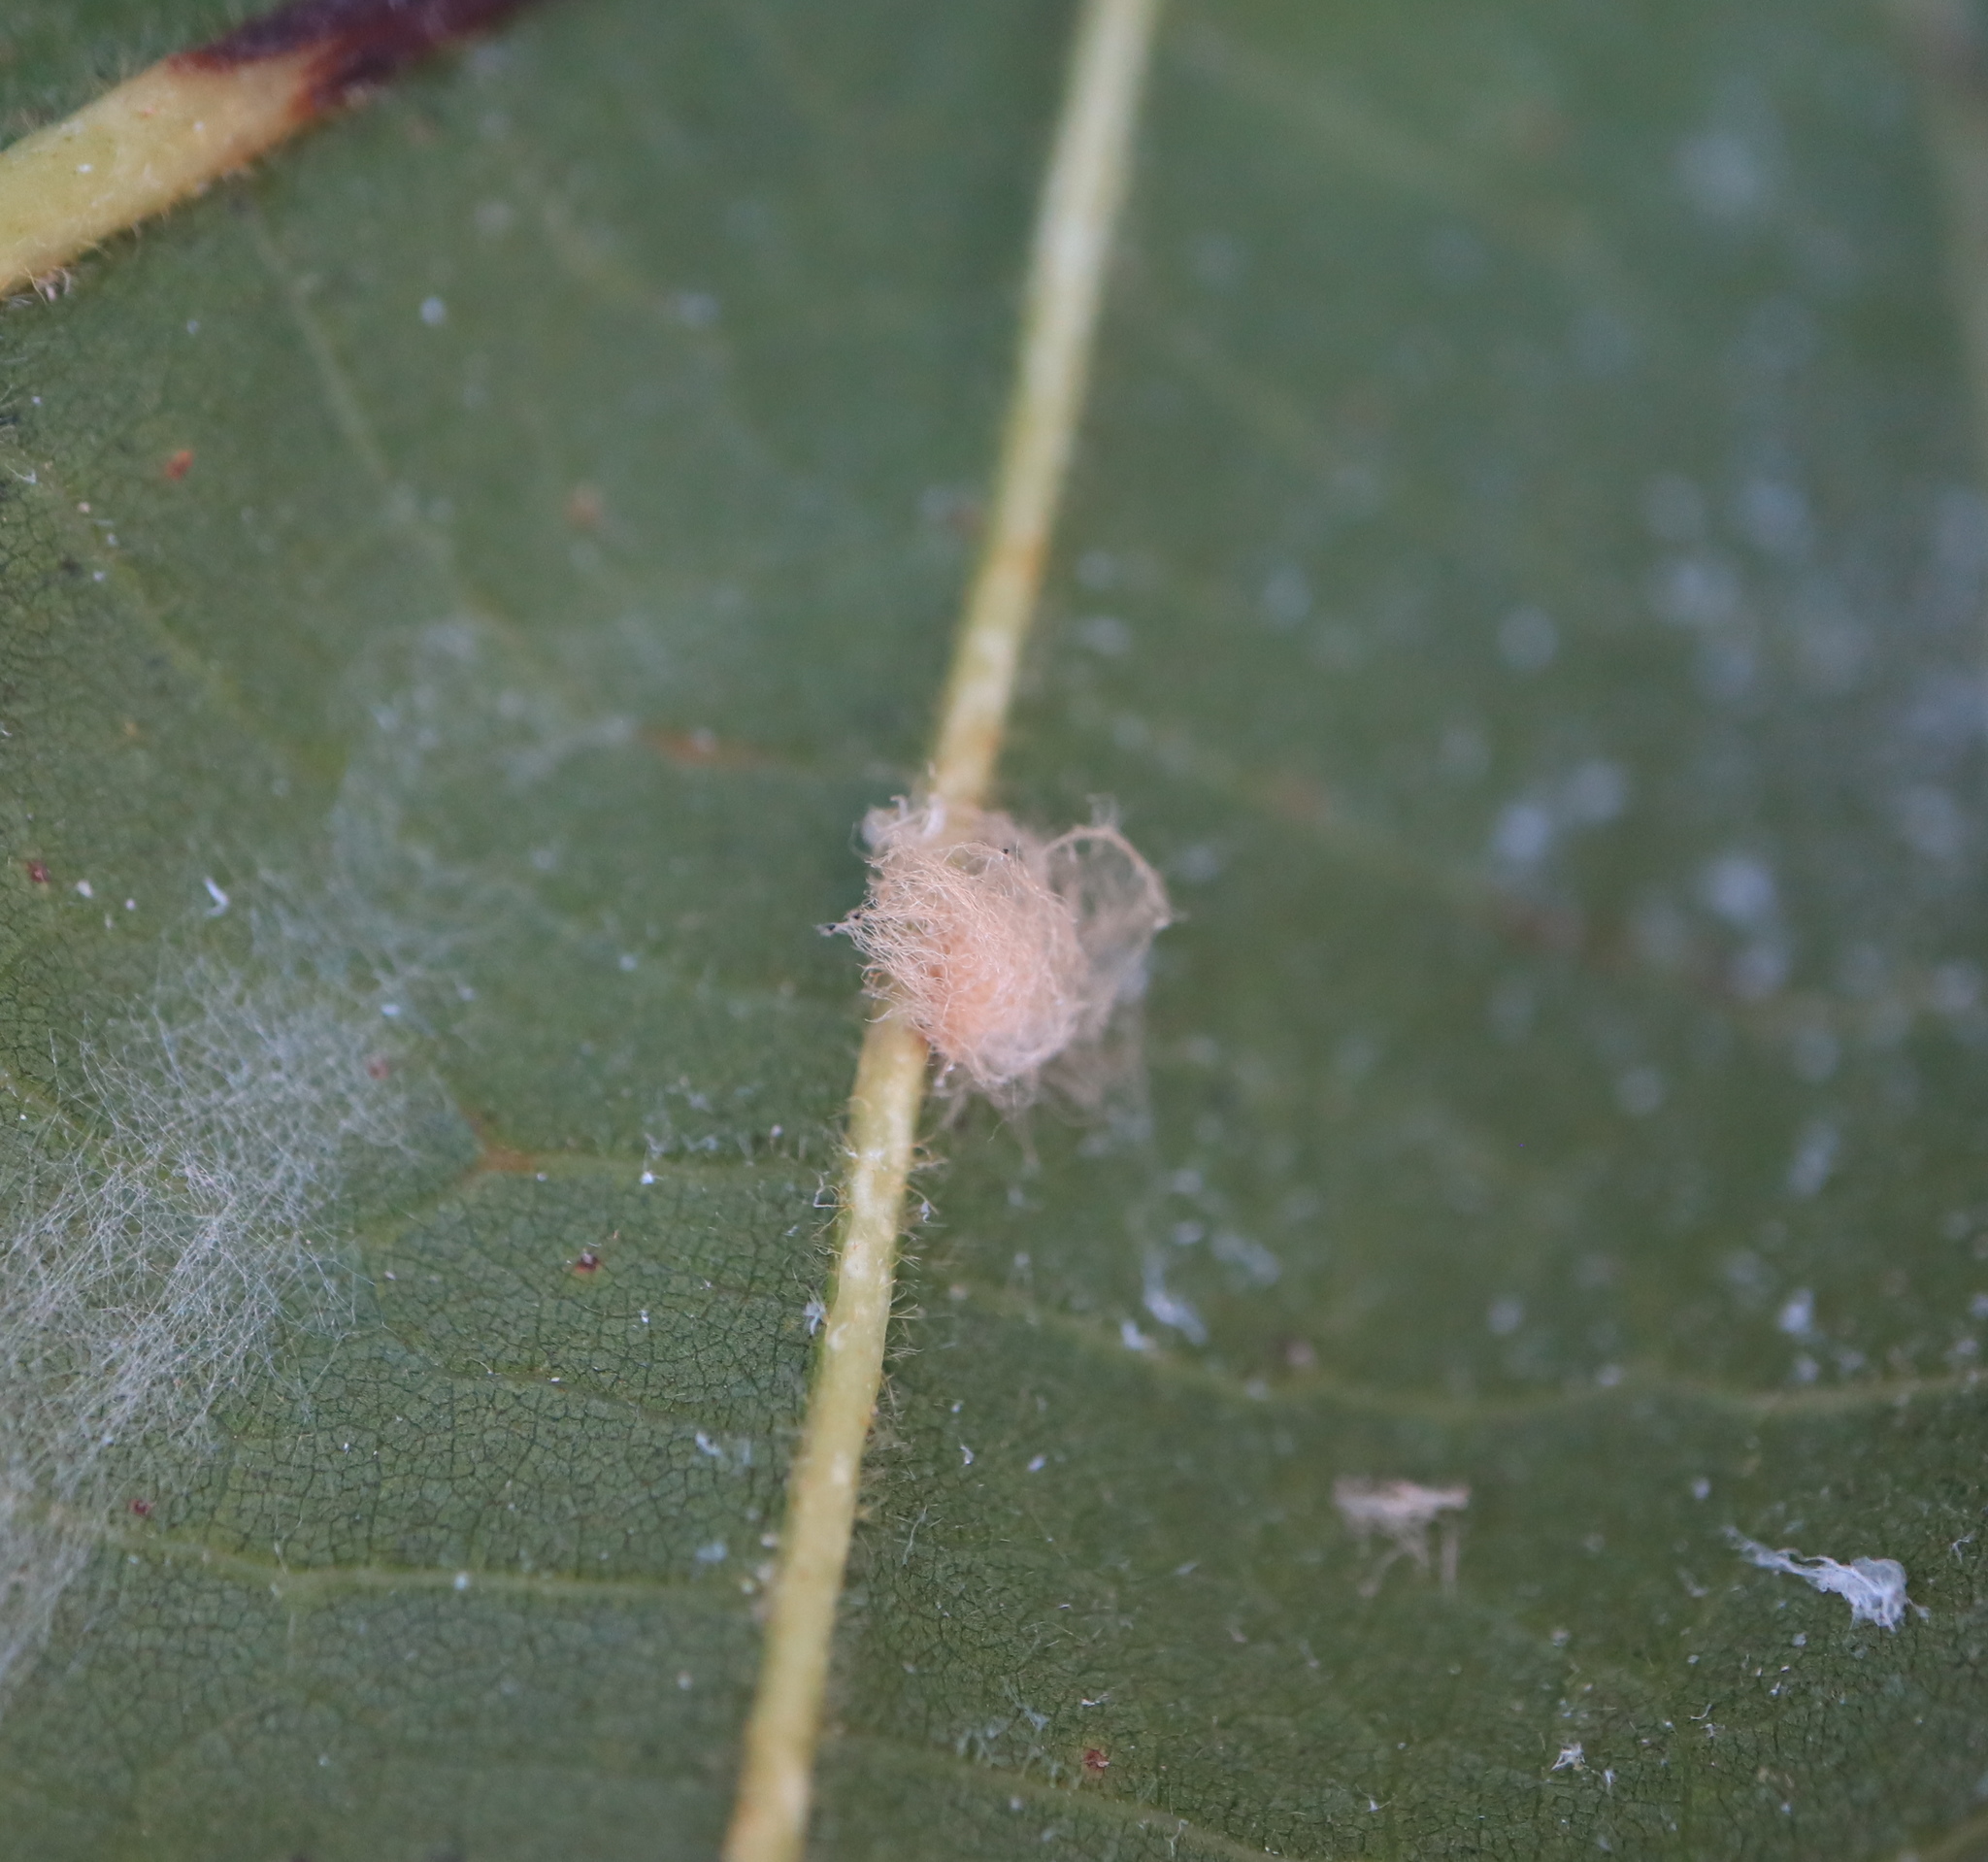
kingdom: Animalia
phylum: Arthropoda
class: Insecta
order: Hymenoptera
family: Cynipidae
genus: Andricus
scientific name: Andricus Druon ignotum
